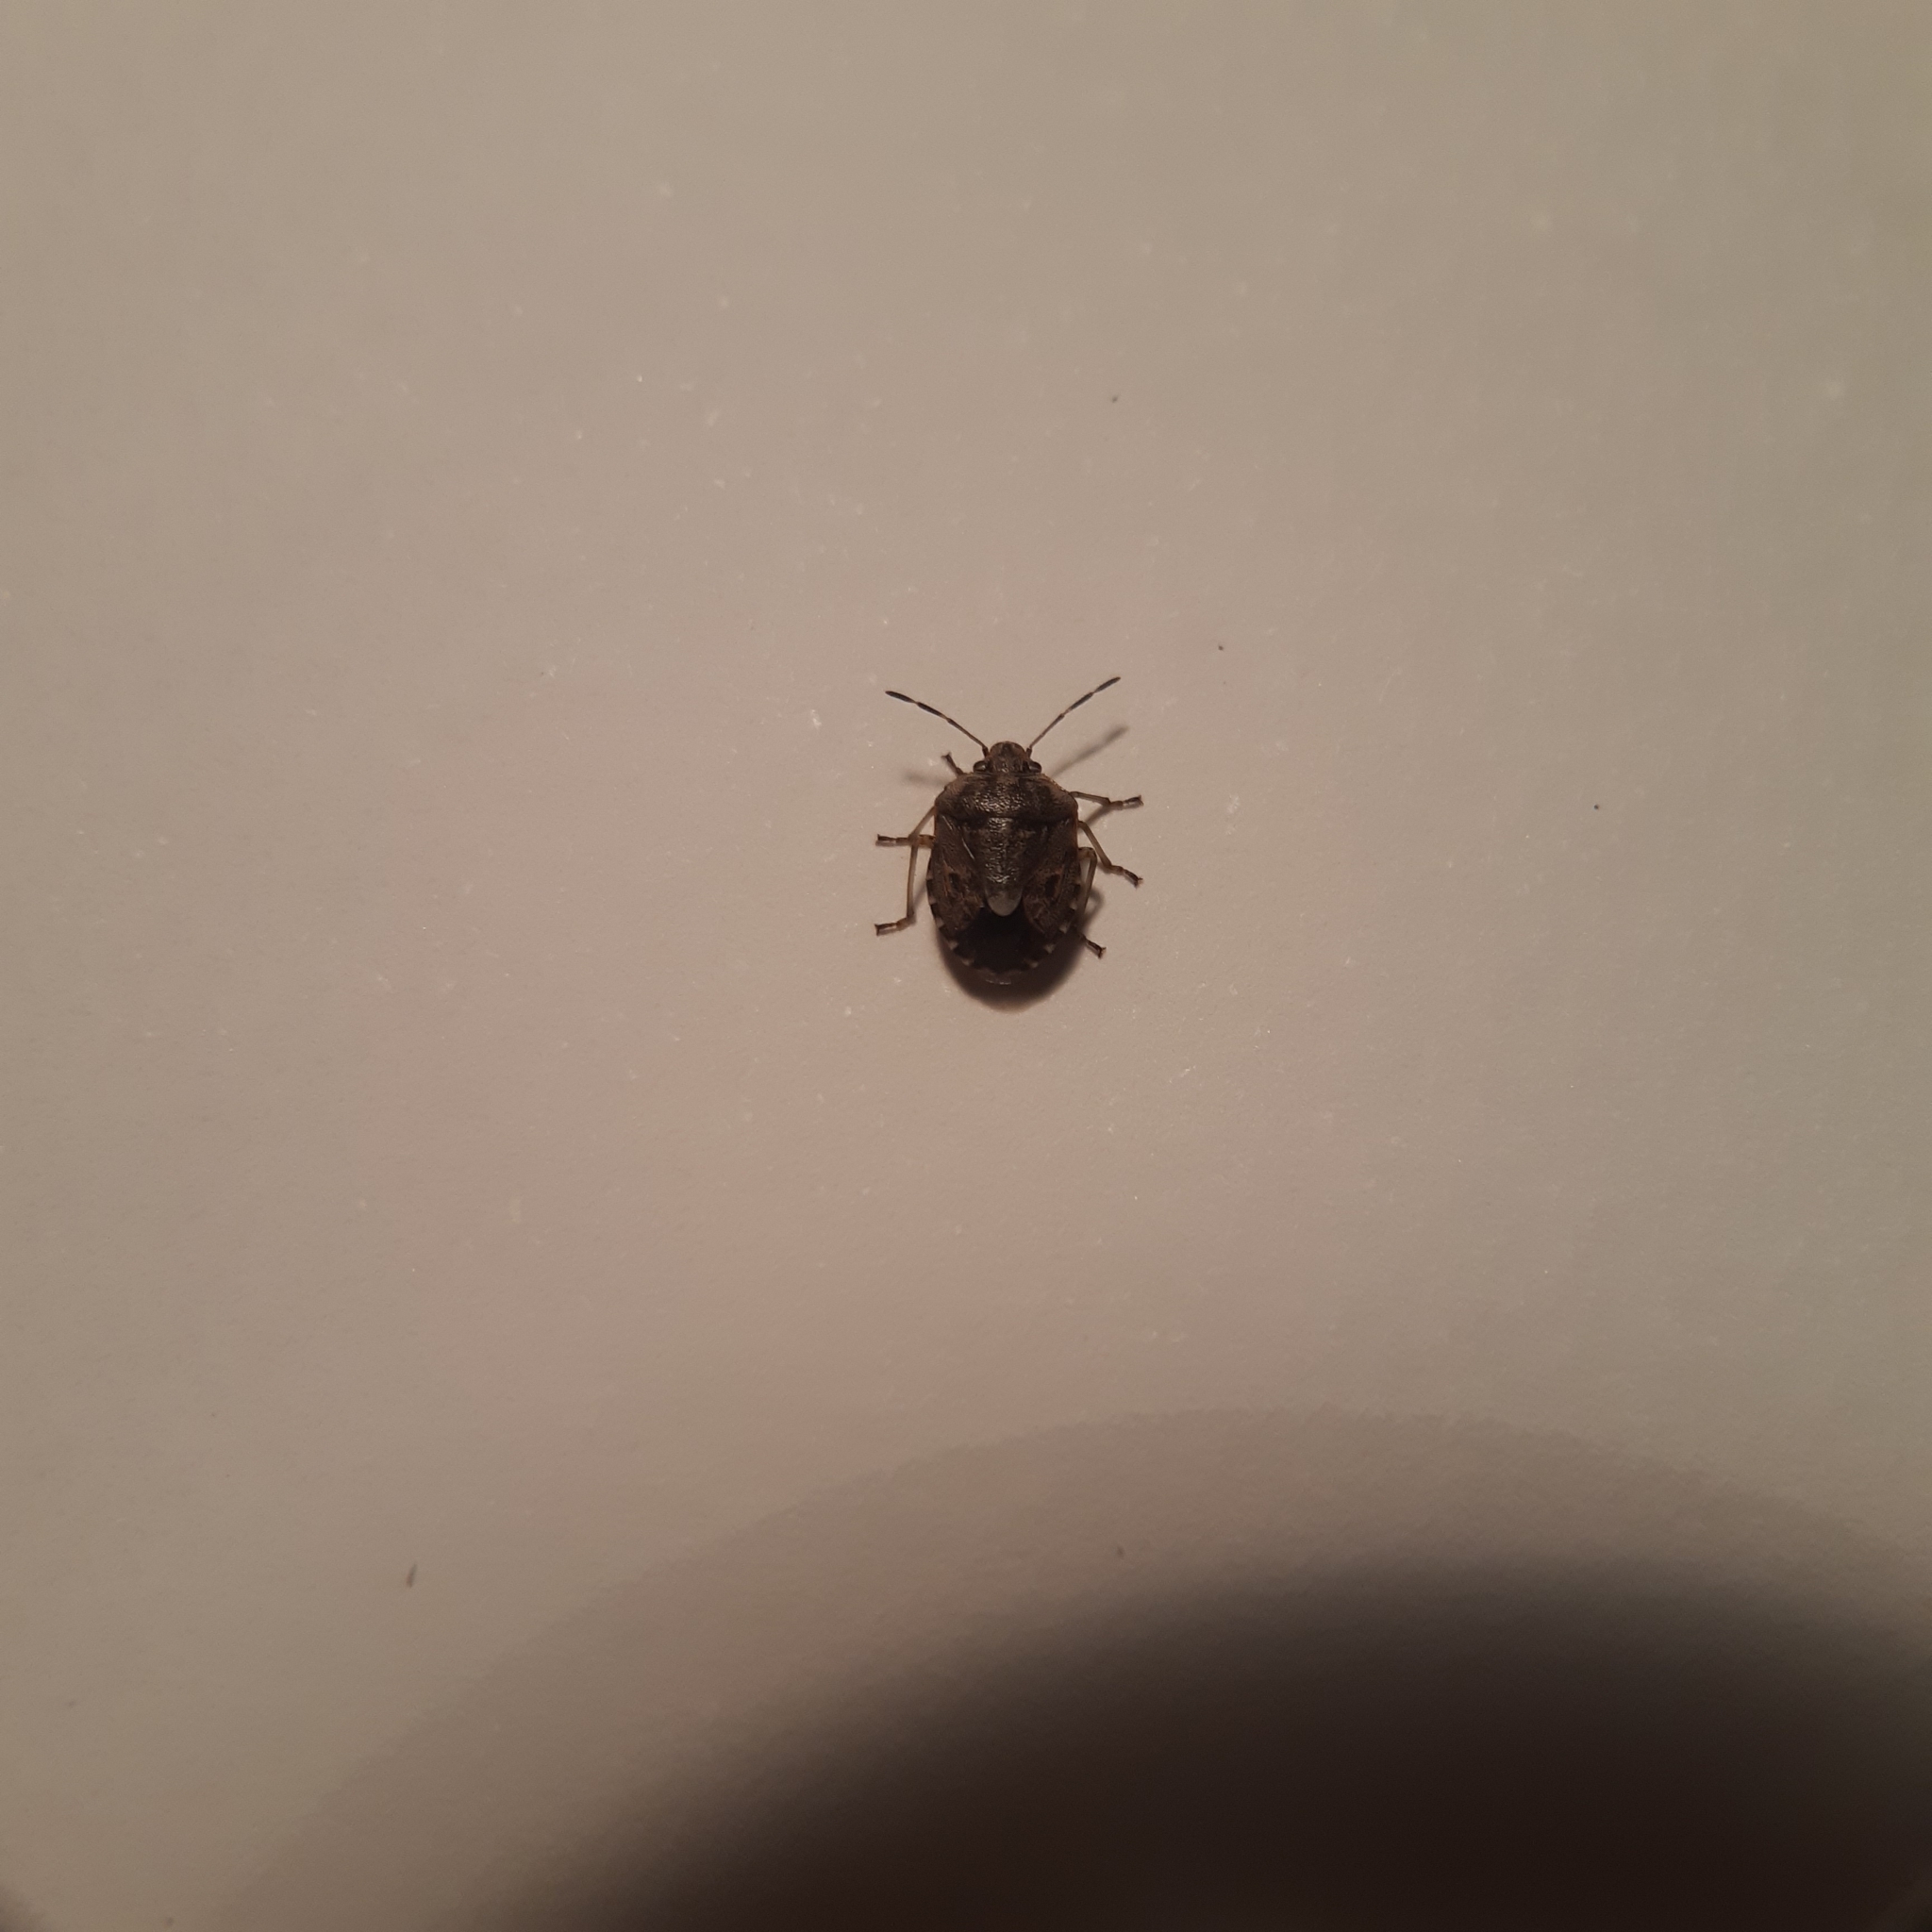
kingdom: Animalia
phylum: Arthropoda
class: Insecta
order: Hemiptera
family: Pentatomidae
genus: Holcogaster
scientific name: Holcogaster fibulata
